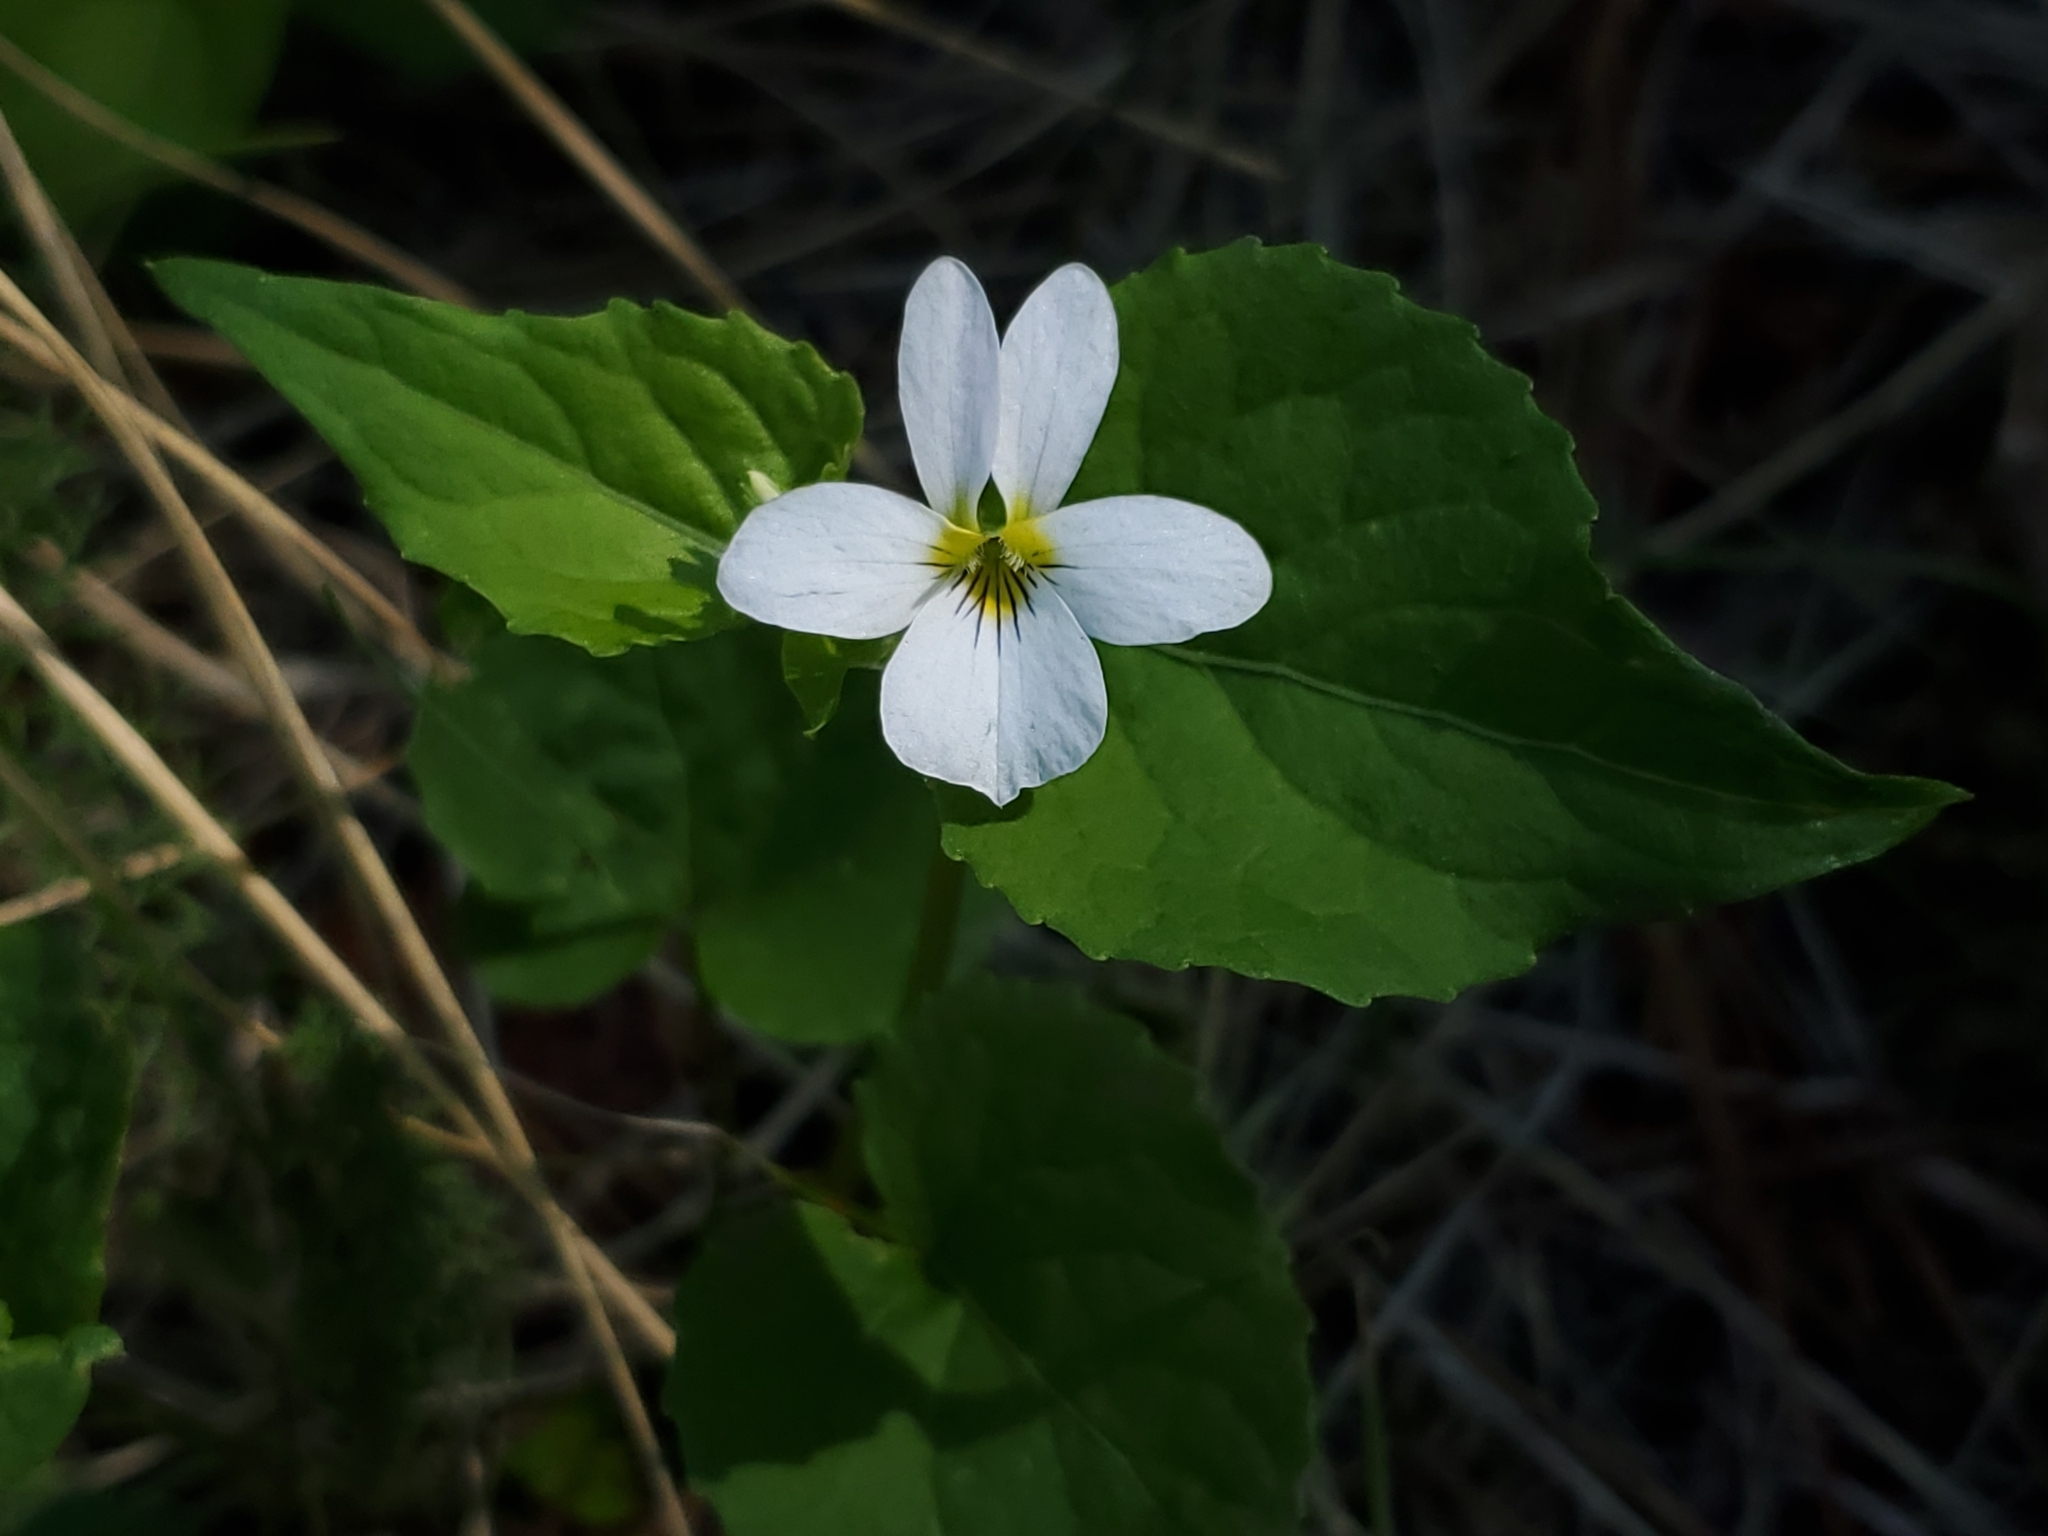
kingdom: Plantae
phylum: Tracheophyta
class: Magnoliopsida
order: Malpighiales
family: Violaceae
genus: Viola
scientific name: Viola canadensis
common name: Canada violet
